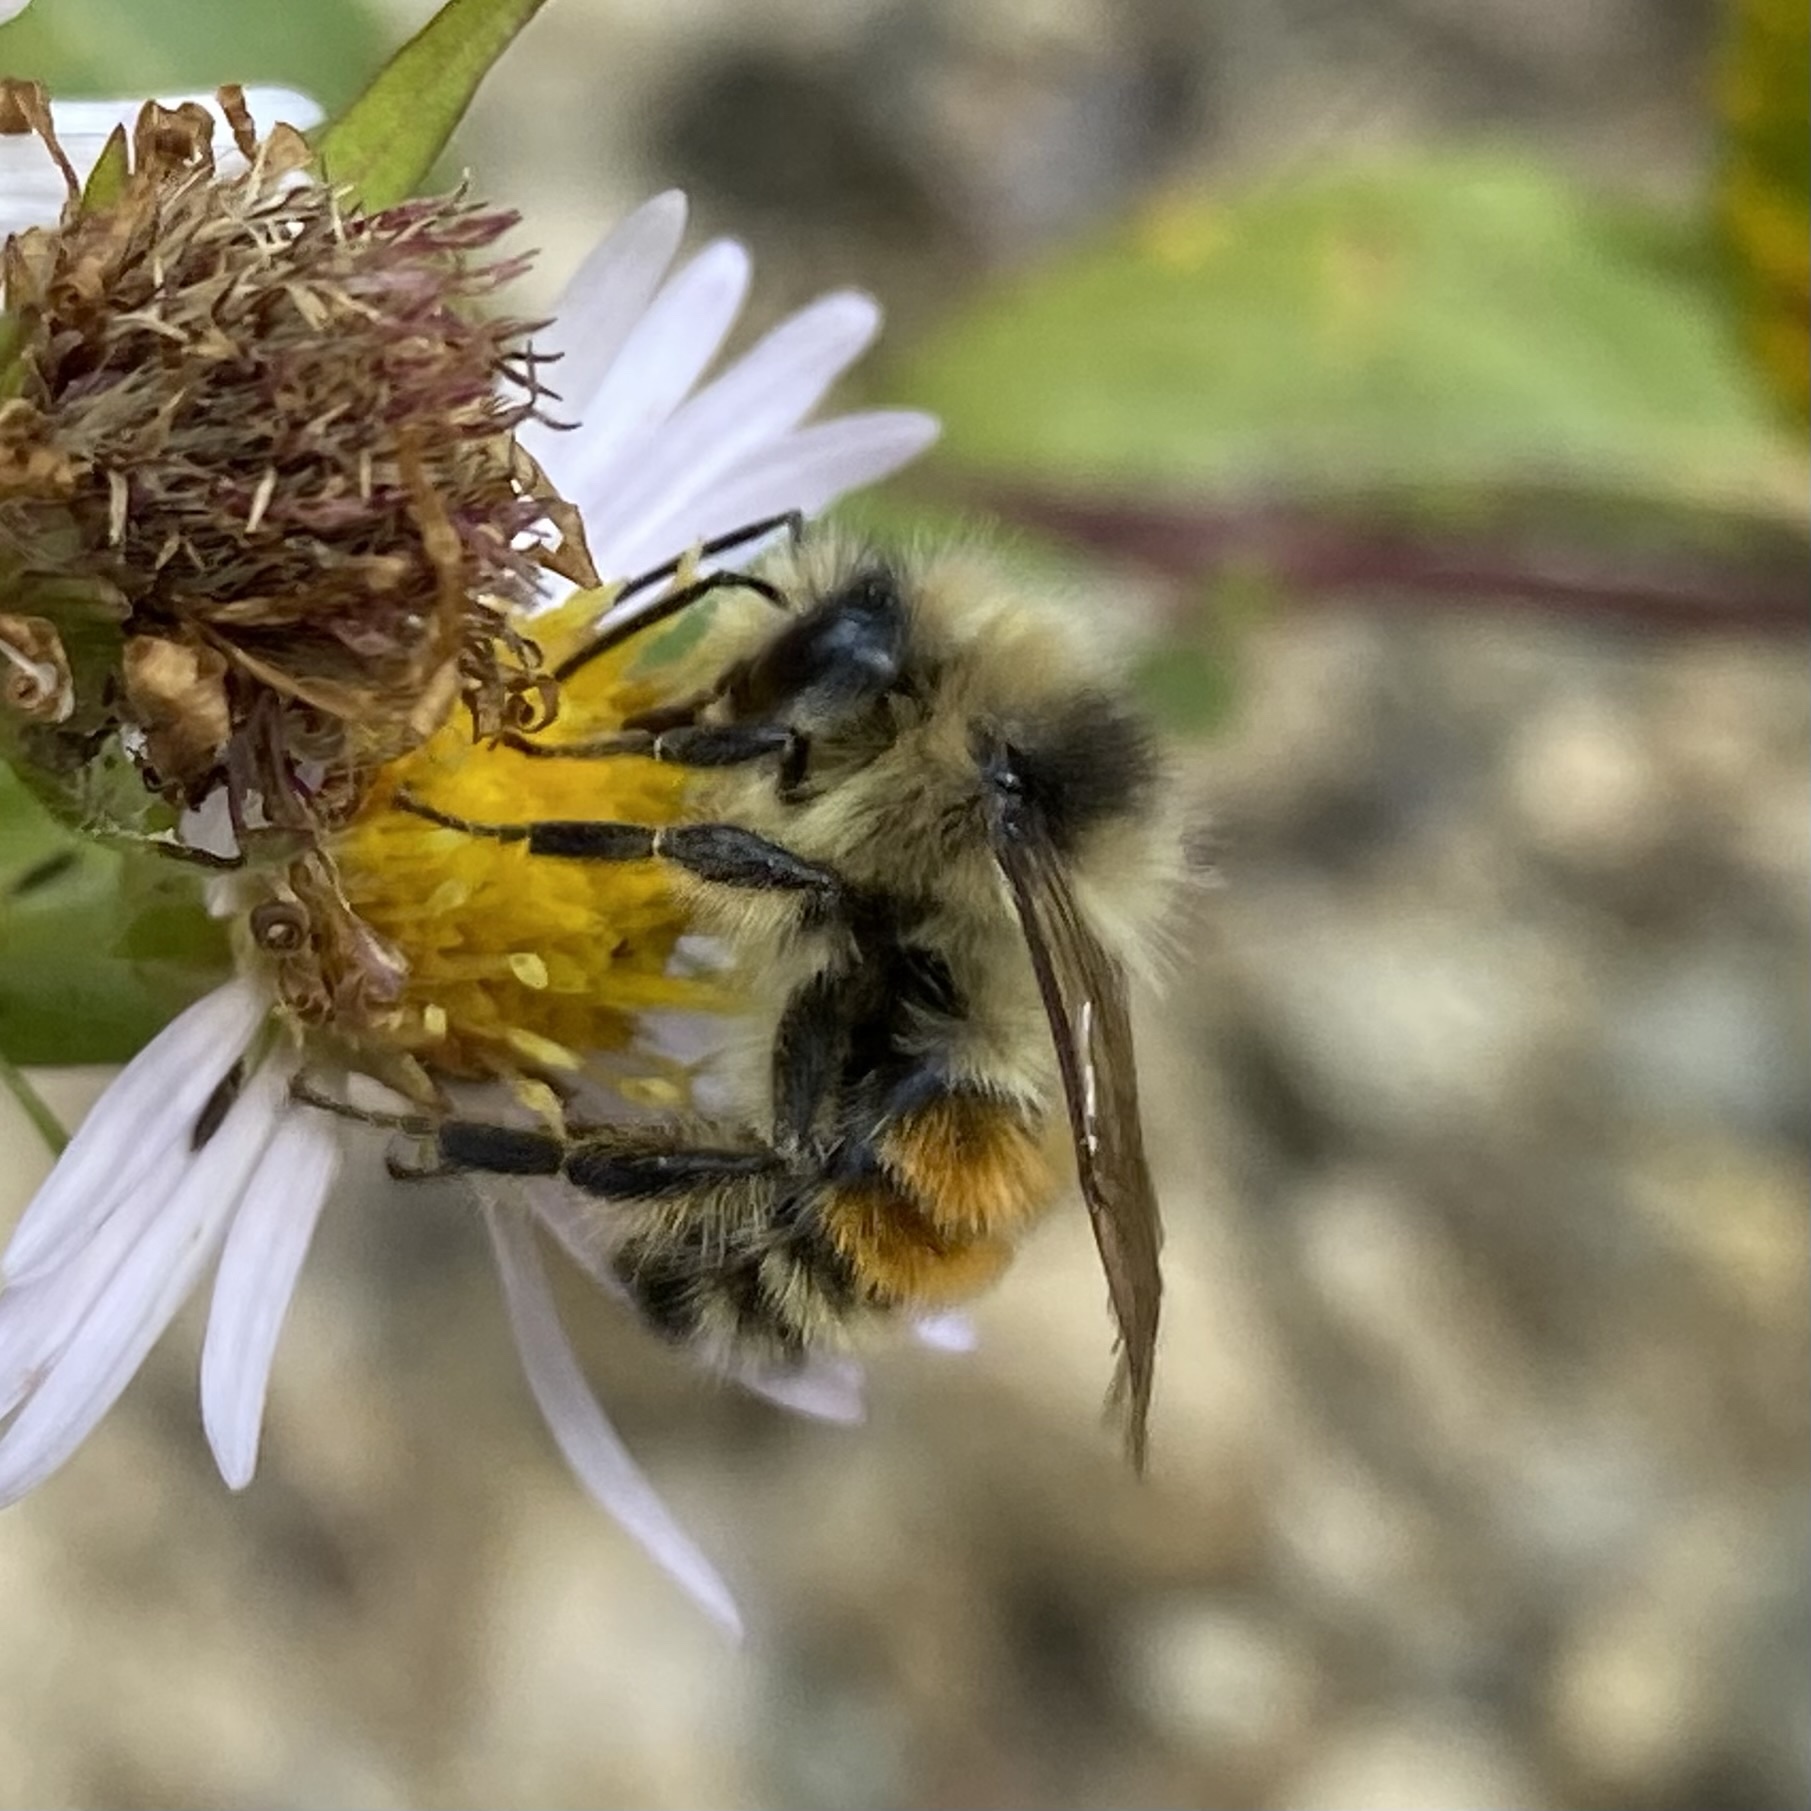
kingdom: Animalia
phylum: Arthropoda
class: Insecta
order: Hymenoptera
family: Apidae
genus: Bombus
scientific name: Bombus sylvicola
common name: Forest bumble bee
